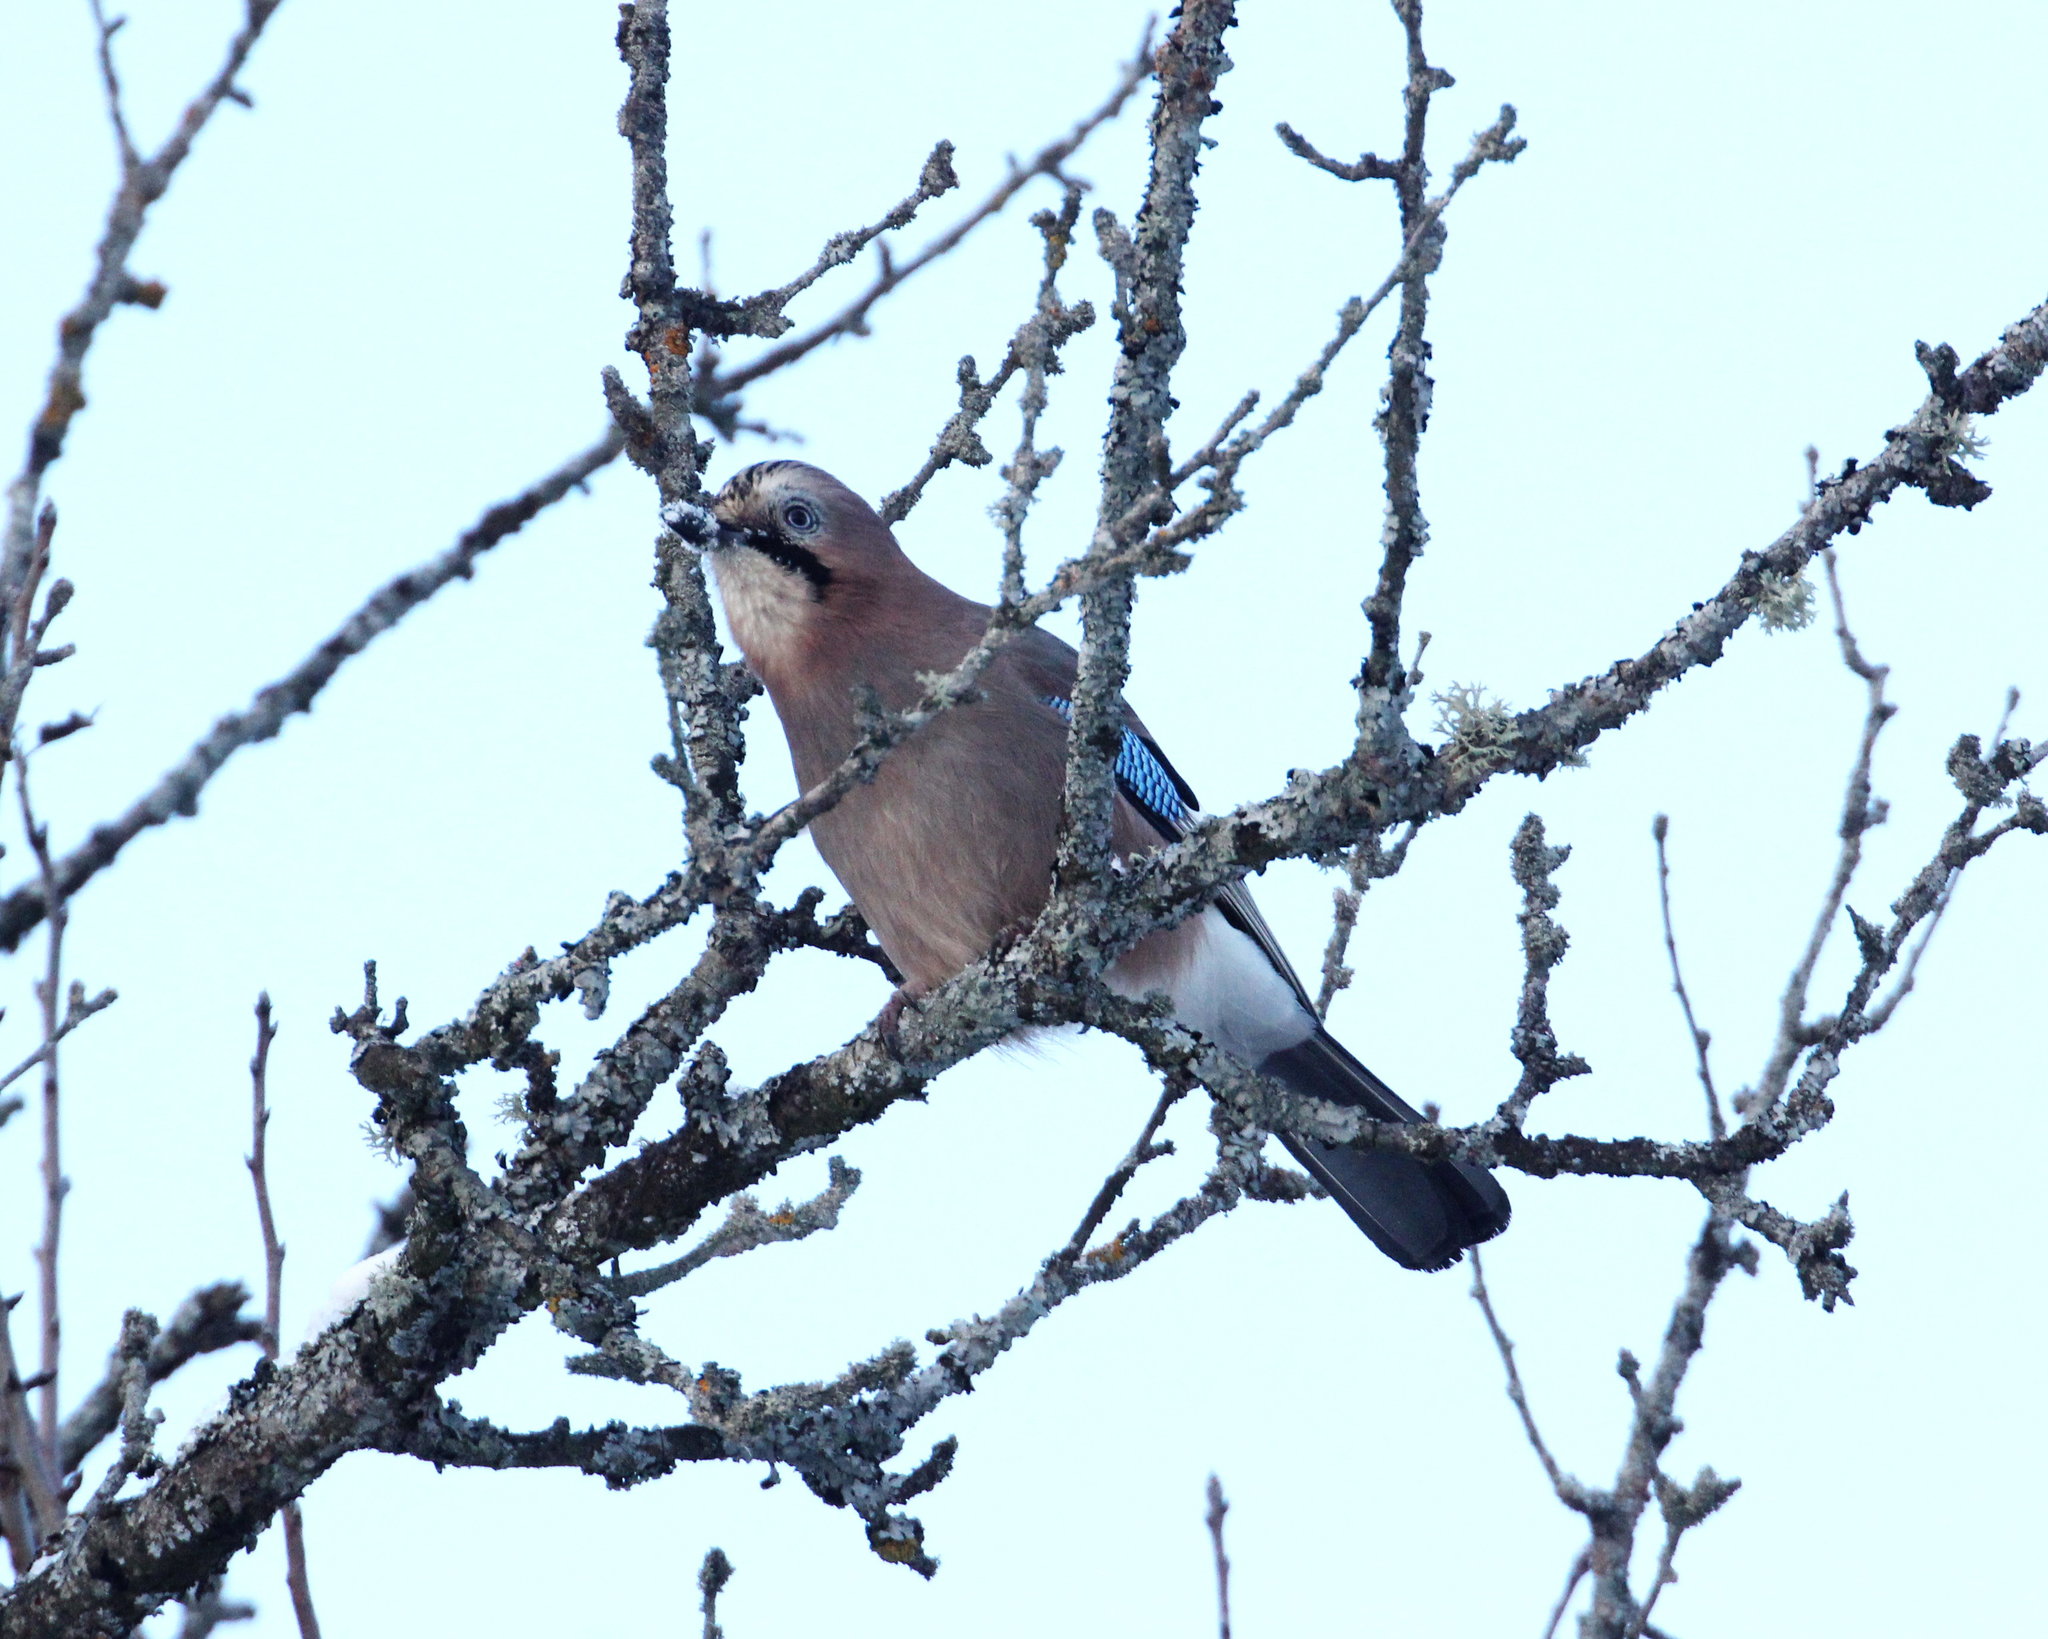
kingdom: Animalia
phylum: Chordata
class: Aves
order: Passeriformes
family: Corvidae
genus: Garrulus
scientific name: Garrulus glandarius
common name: Eurasian jay
